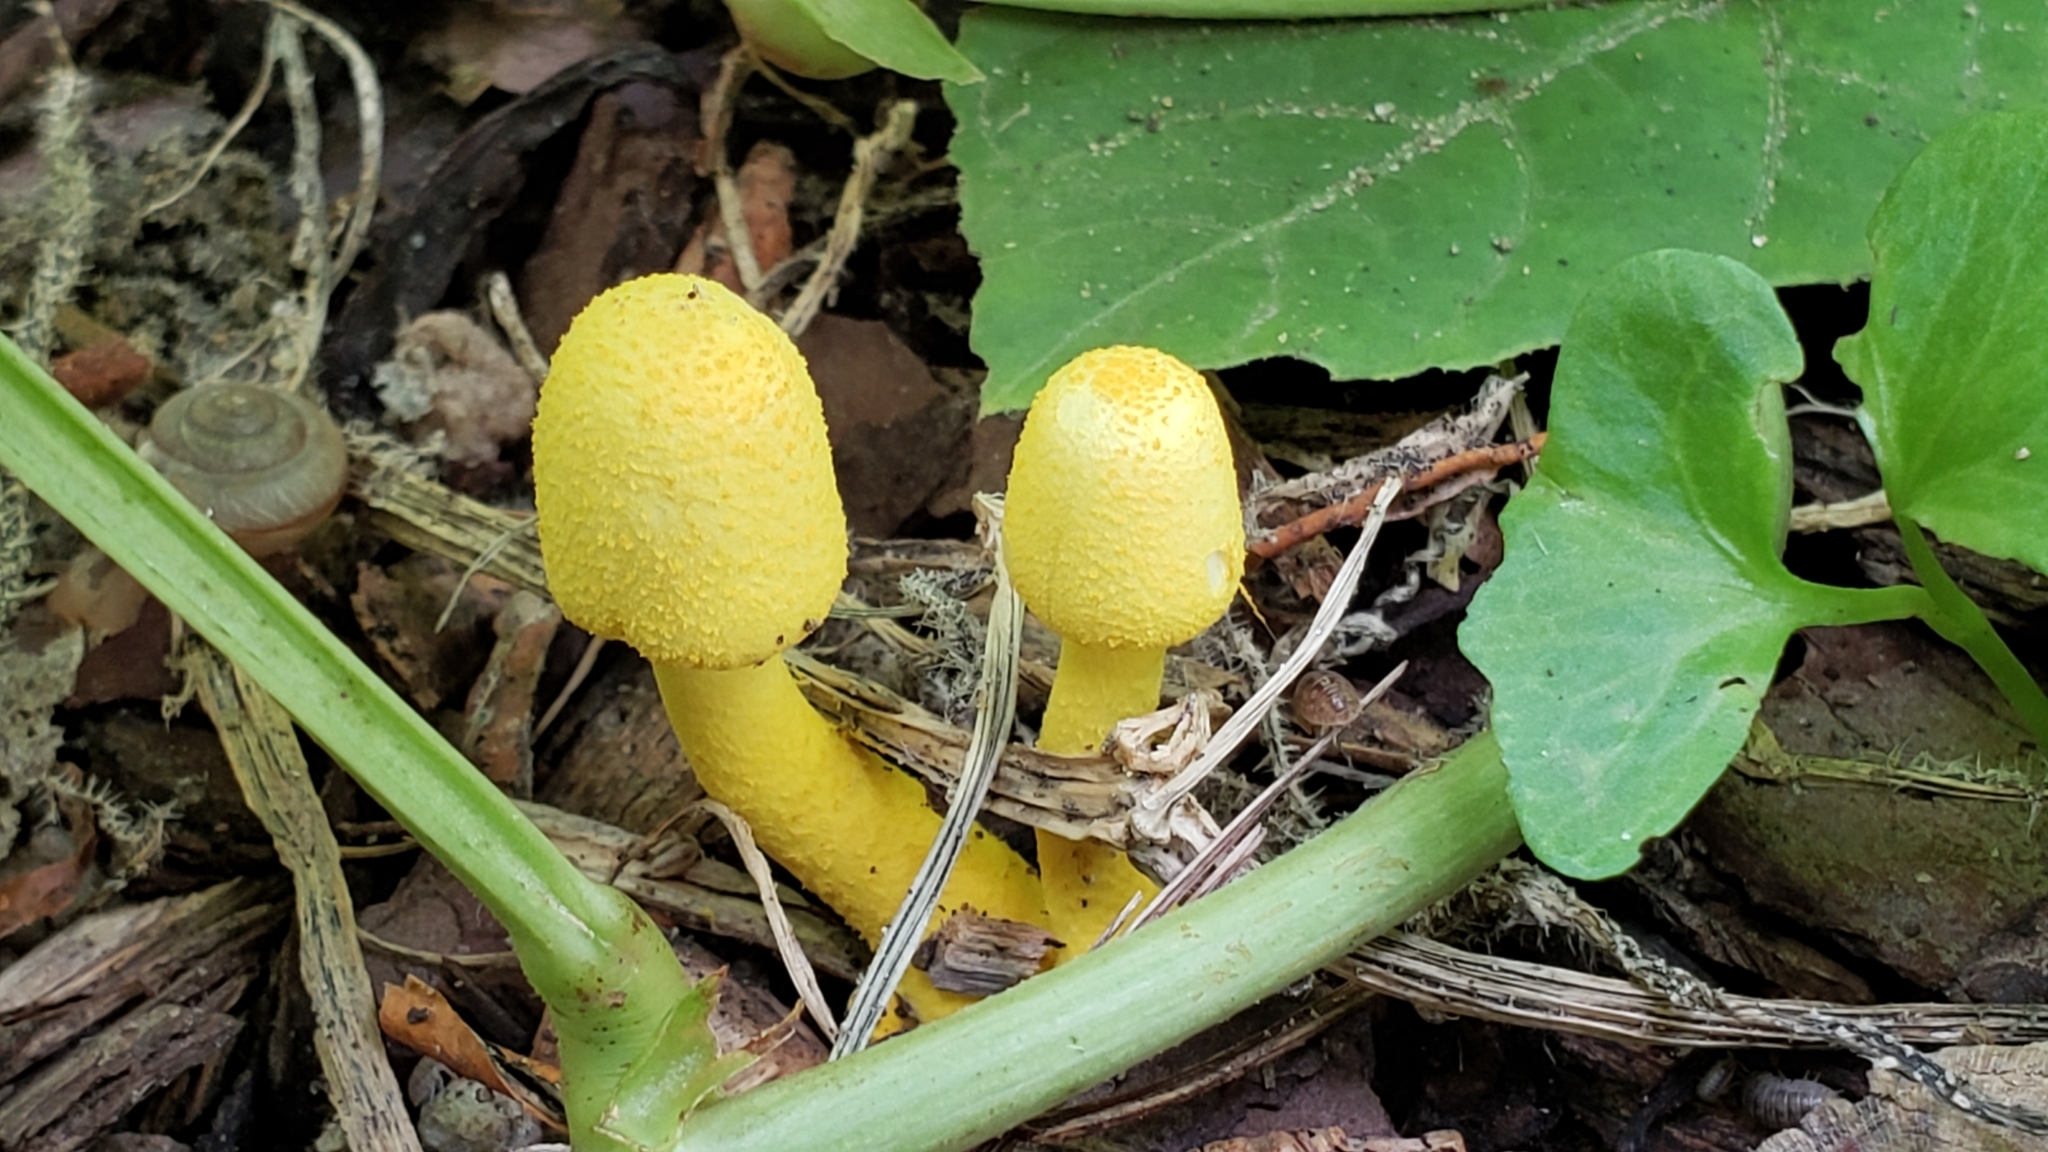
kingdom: Fungi
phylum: Basidiomycota
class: Agaricomycetes
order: Agaricales
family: Agaricaceae
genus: Leucocoprinus
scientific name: Leucocoprinus birnbaumii
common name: Plantpot dapperling
